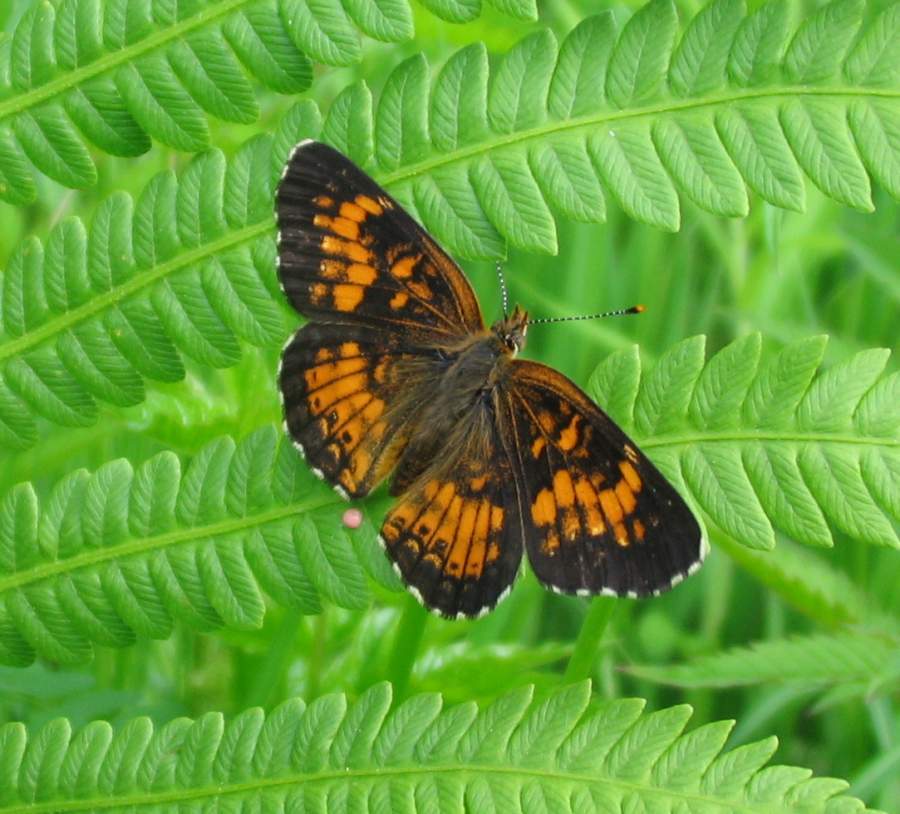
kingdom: Animalia
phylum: Arthropoda
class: Insecta
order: Lepidoptera
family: Nymphalidae
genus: Chlosyne
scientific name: Chlosyne harrisii
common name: Harris's checkerspot
